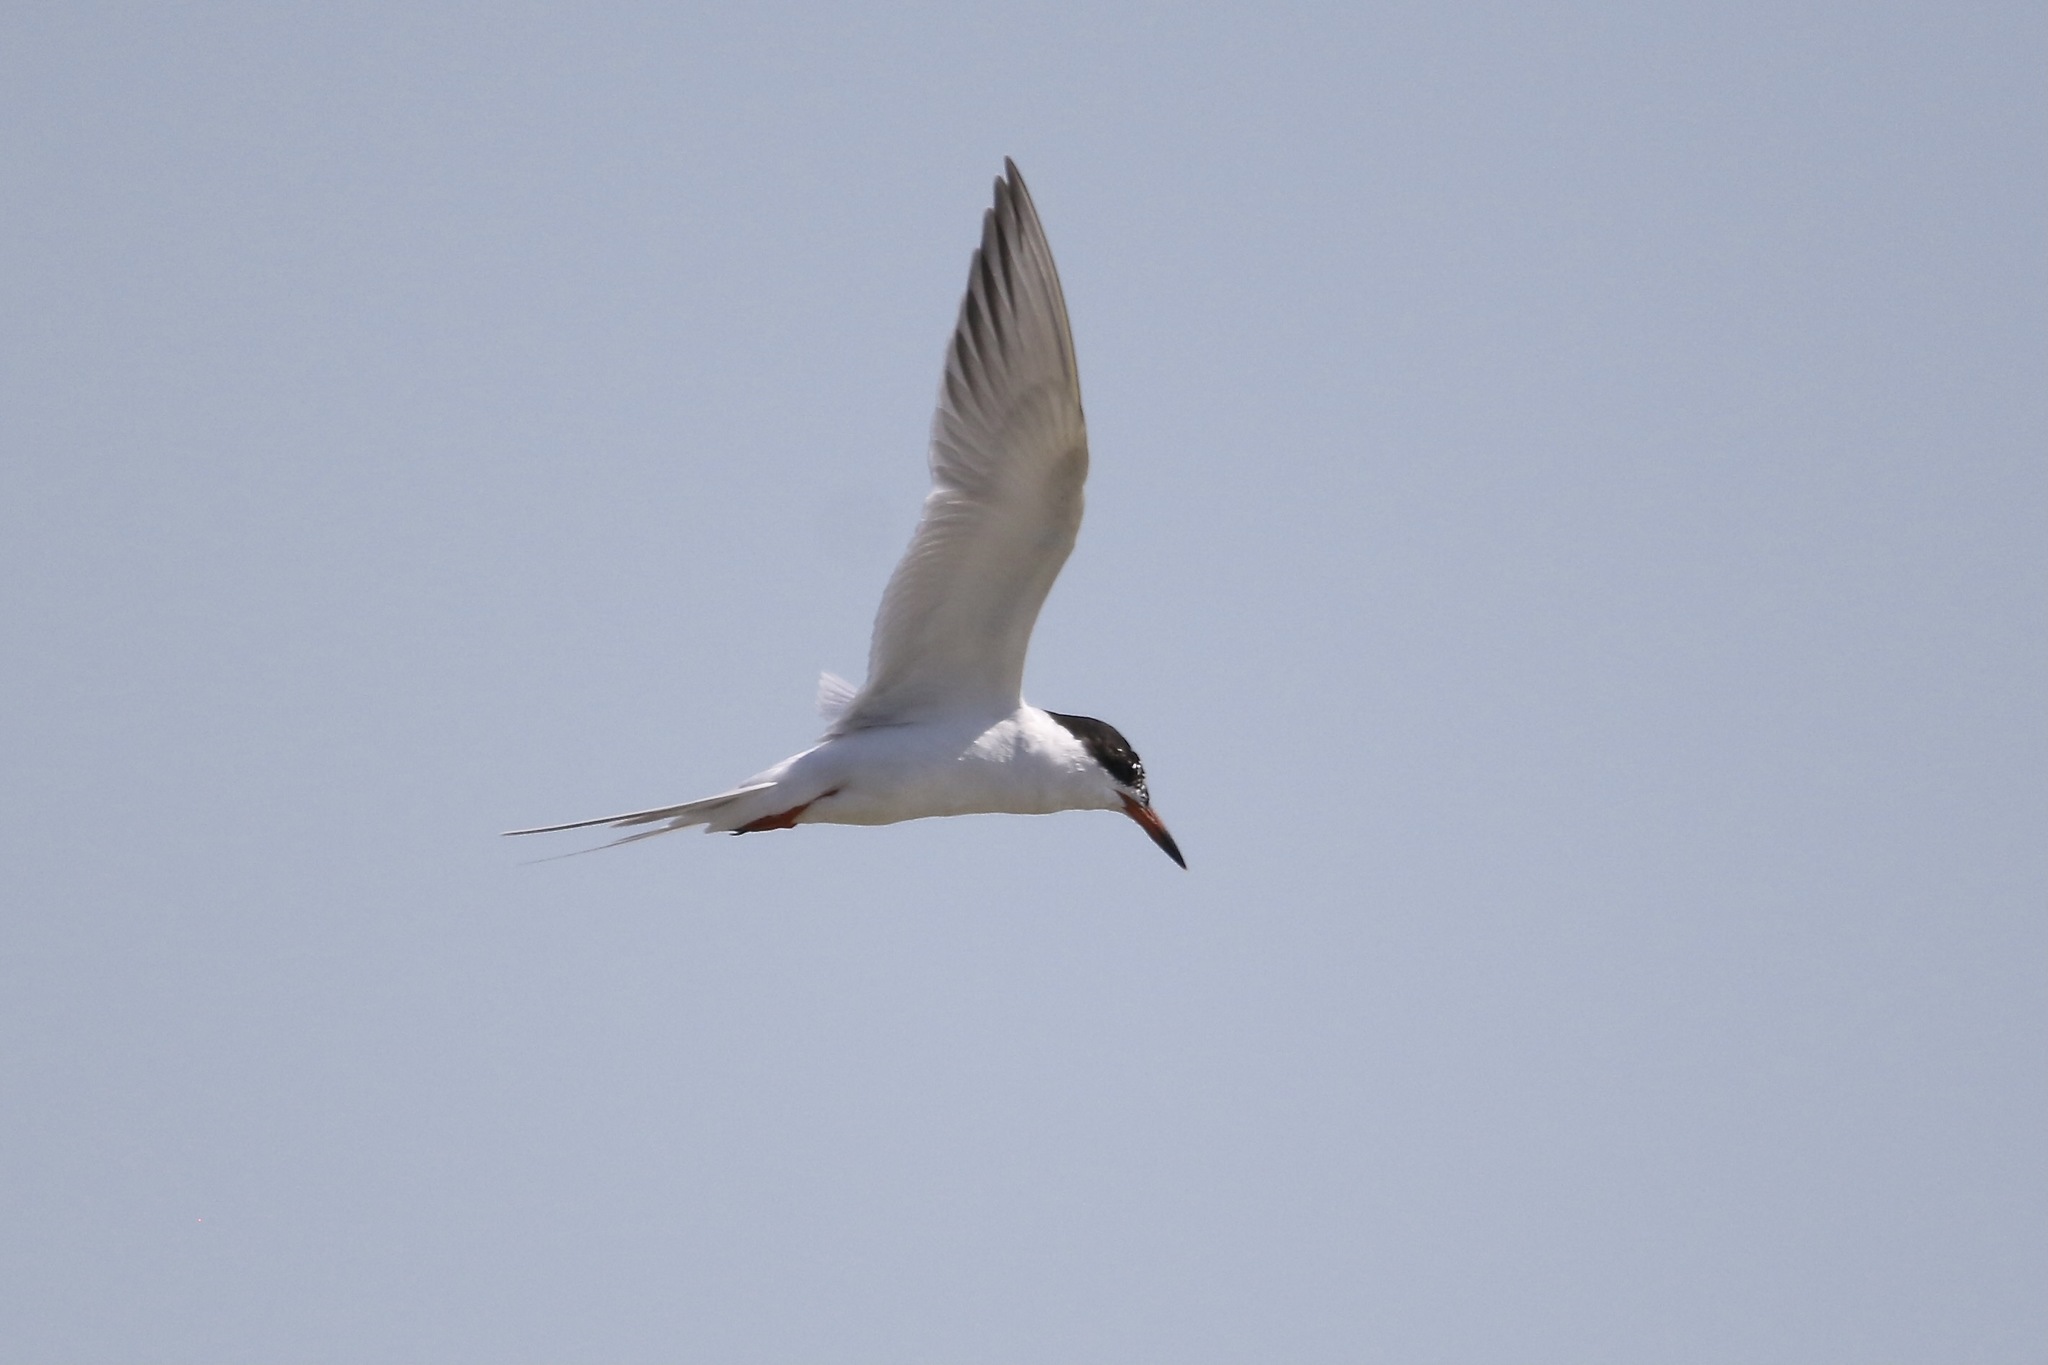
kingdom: Animalia
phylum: Chordata
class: Aves
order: Charadriiformes
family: Laridae
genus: Sterna
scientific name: Sterna forsteri
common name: Forster's tern
